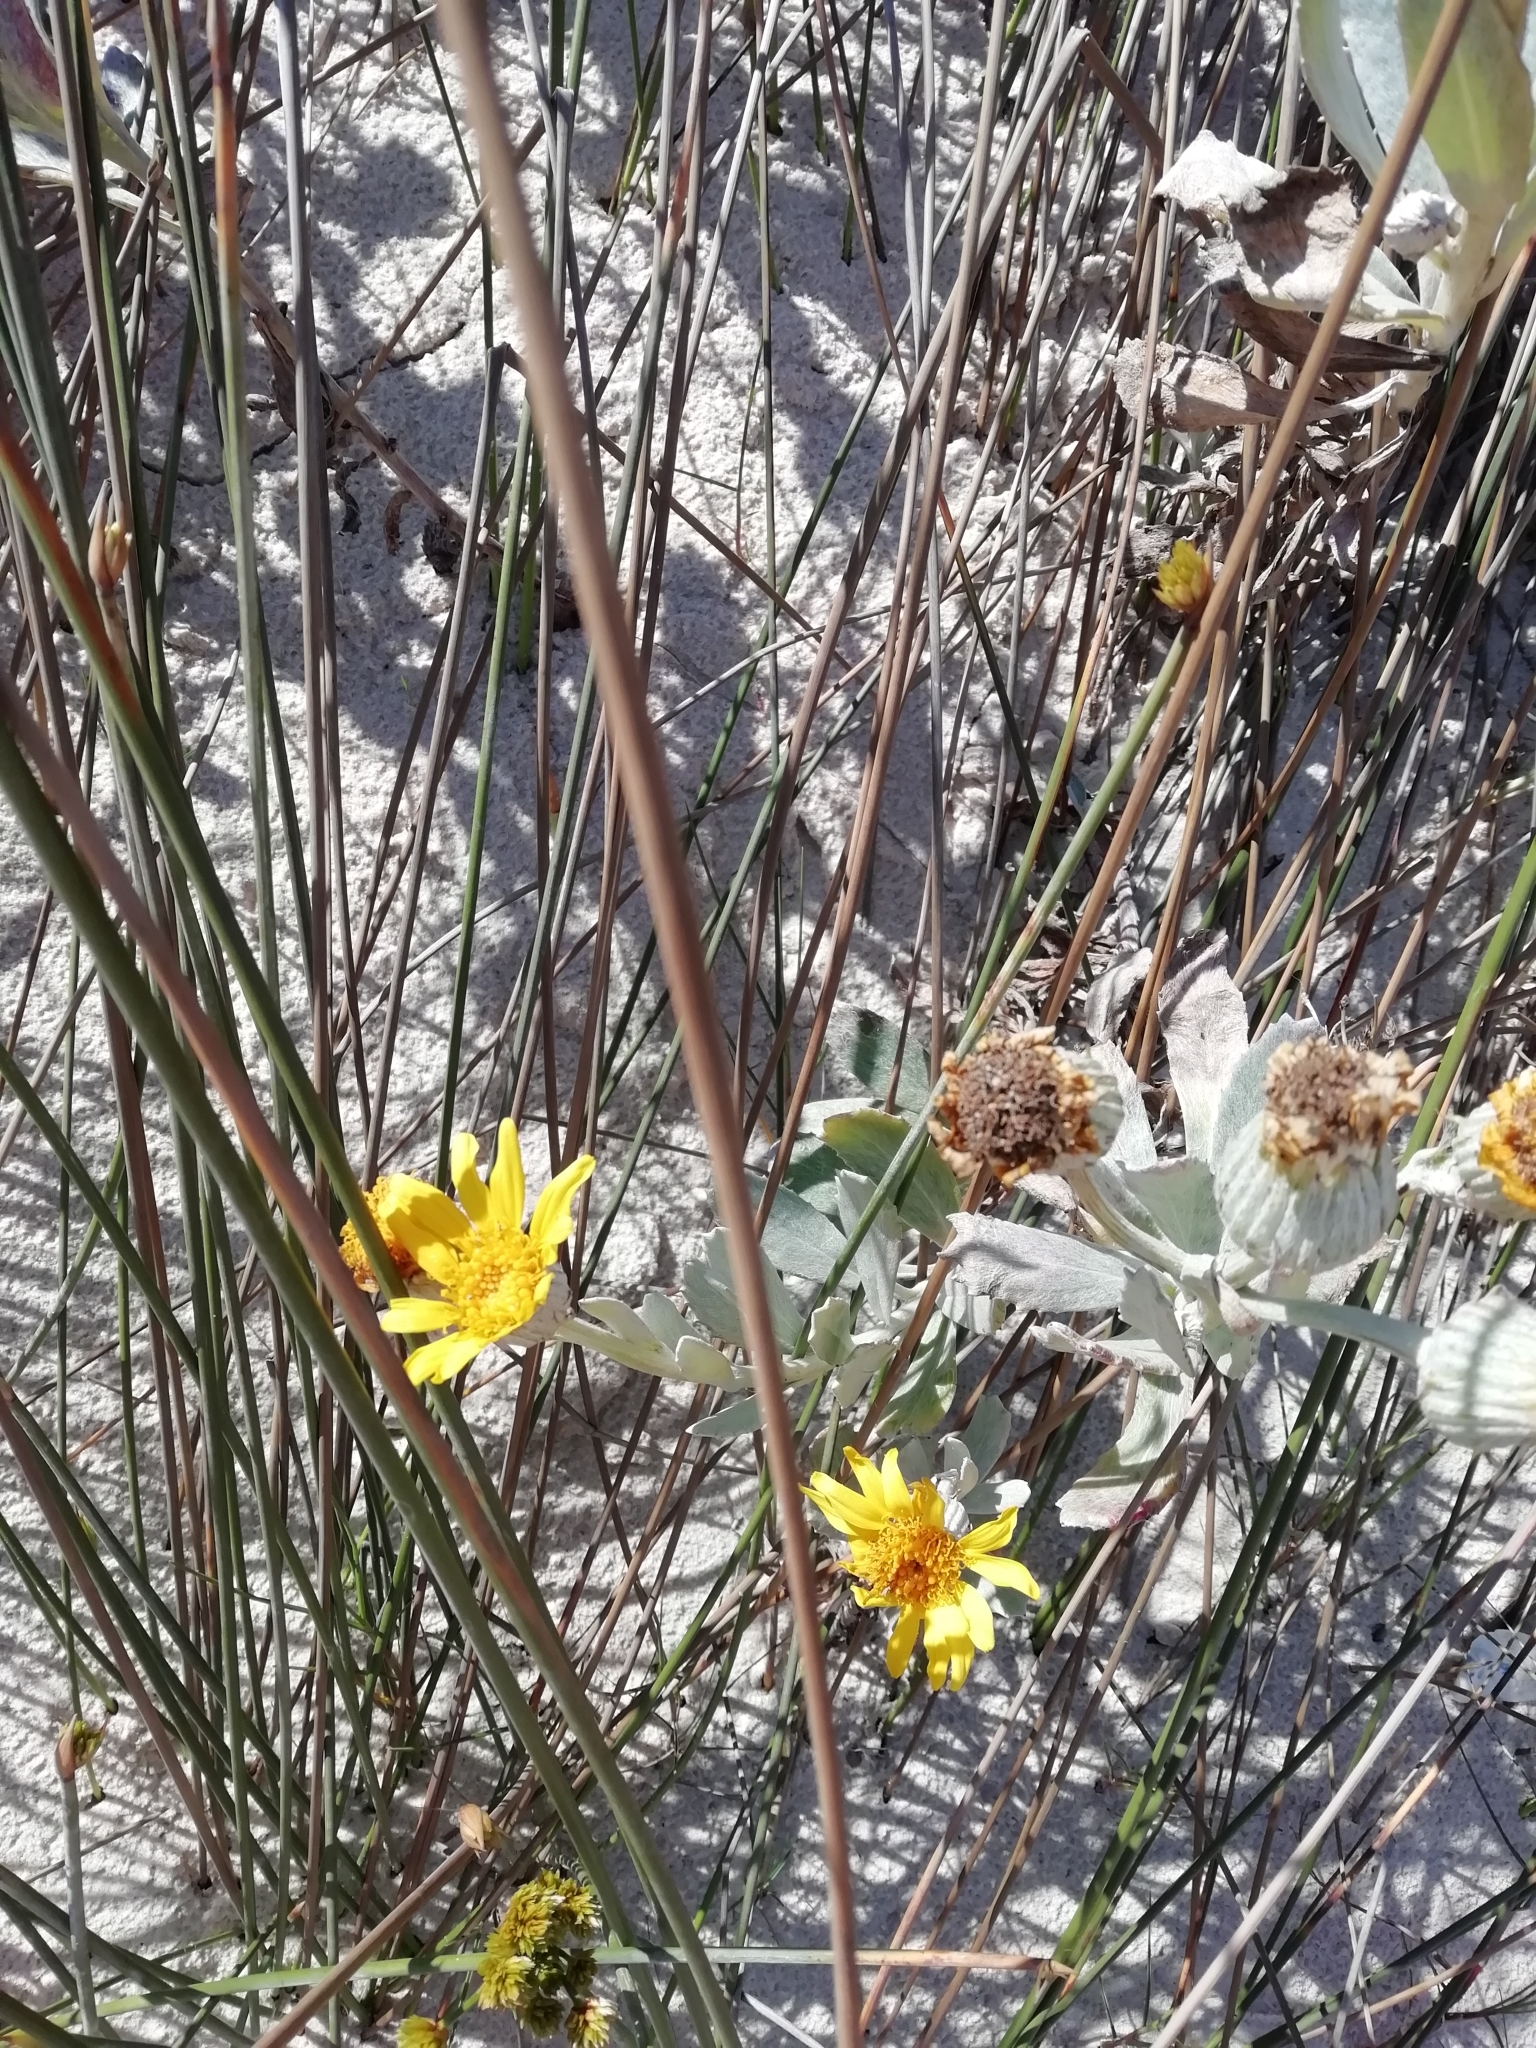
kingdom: Plantae
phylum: Tracheophyta
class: Magnoliopsida
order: Asterales
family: Asteraceae
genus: Senecio
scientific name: Senecio crassiflorus
